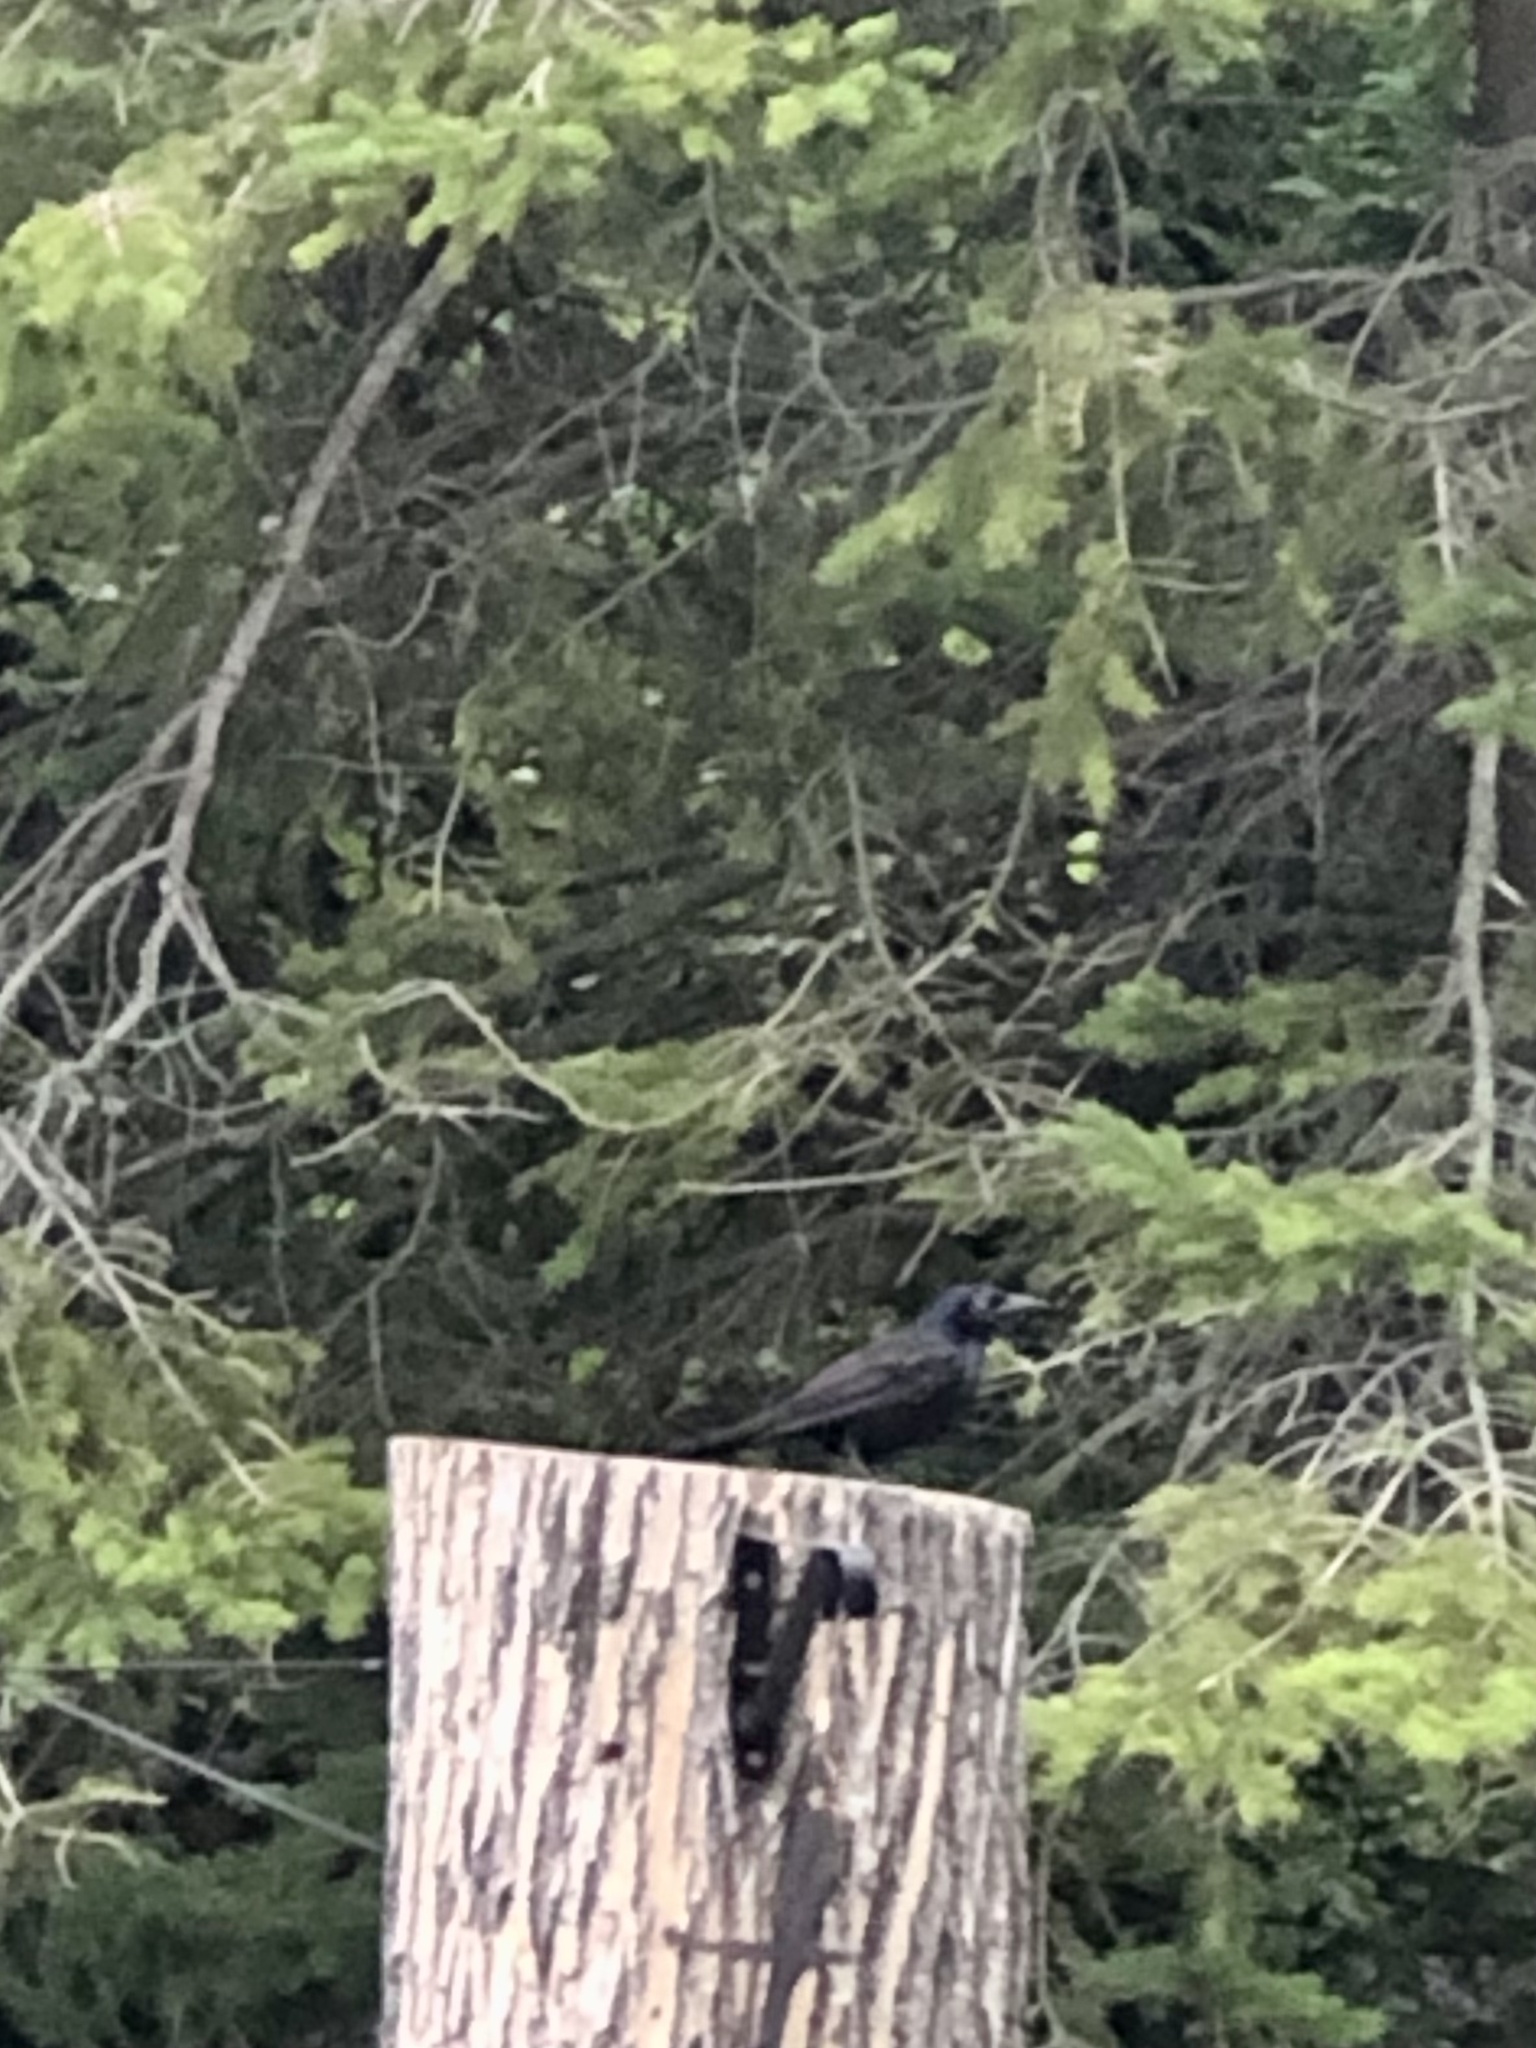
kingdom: Animalia
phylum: Chordata
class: Aves
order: Passeriformes
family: Icteridae
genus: Quiscalus
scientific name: Quiscalus quiscula
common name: Common grackle
